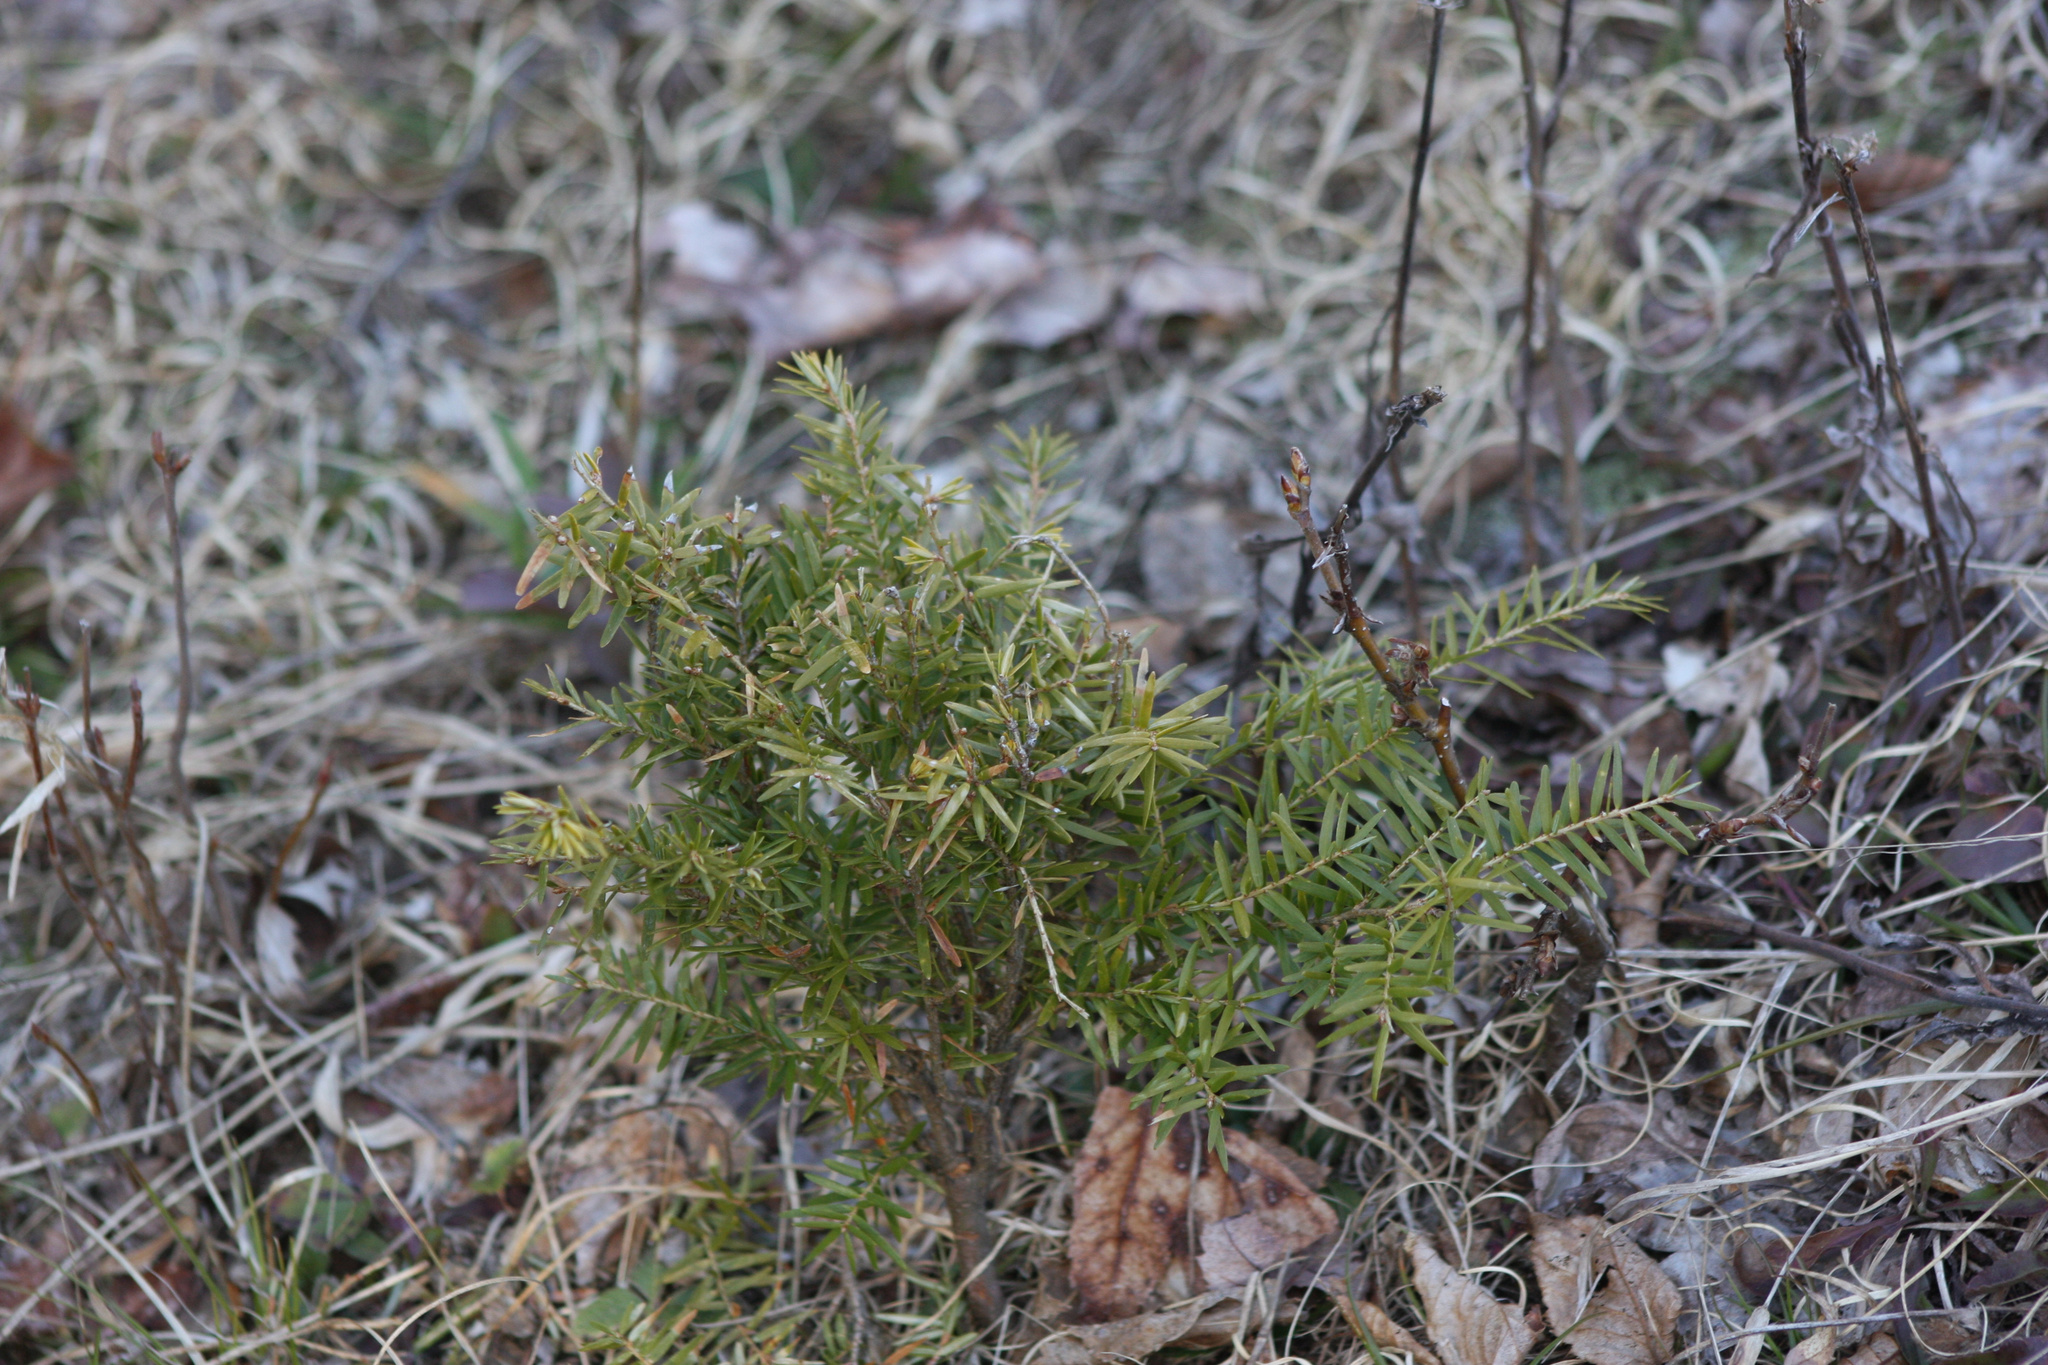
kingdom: Plantae
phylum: Tracheophyta
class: Pinopsida
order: Pinales
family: Pinaceae
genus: Tsuga
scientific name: Tsuga canadensis
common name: Eastern hemlock
